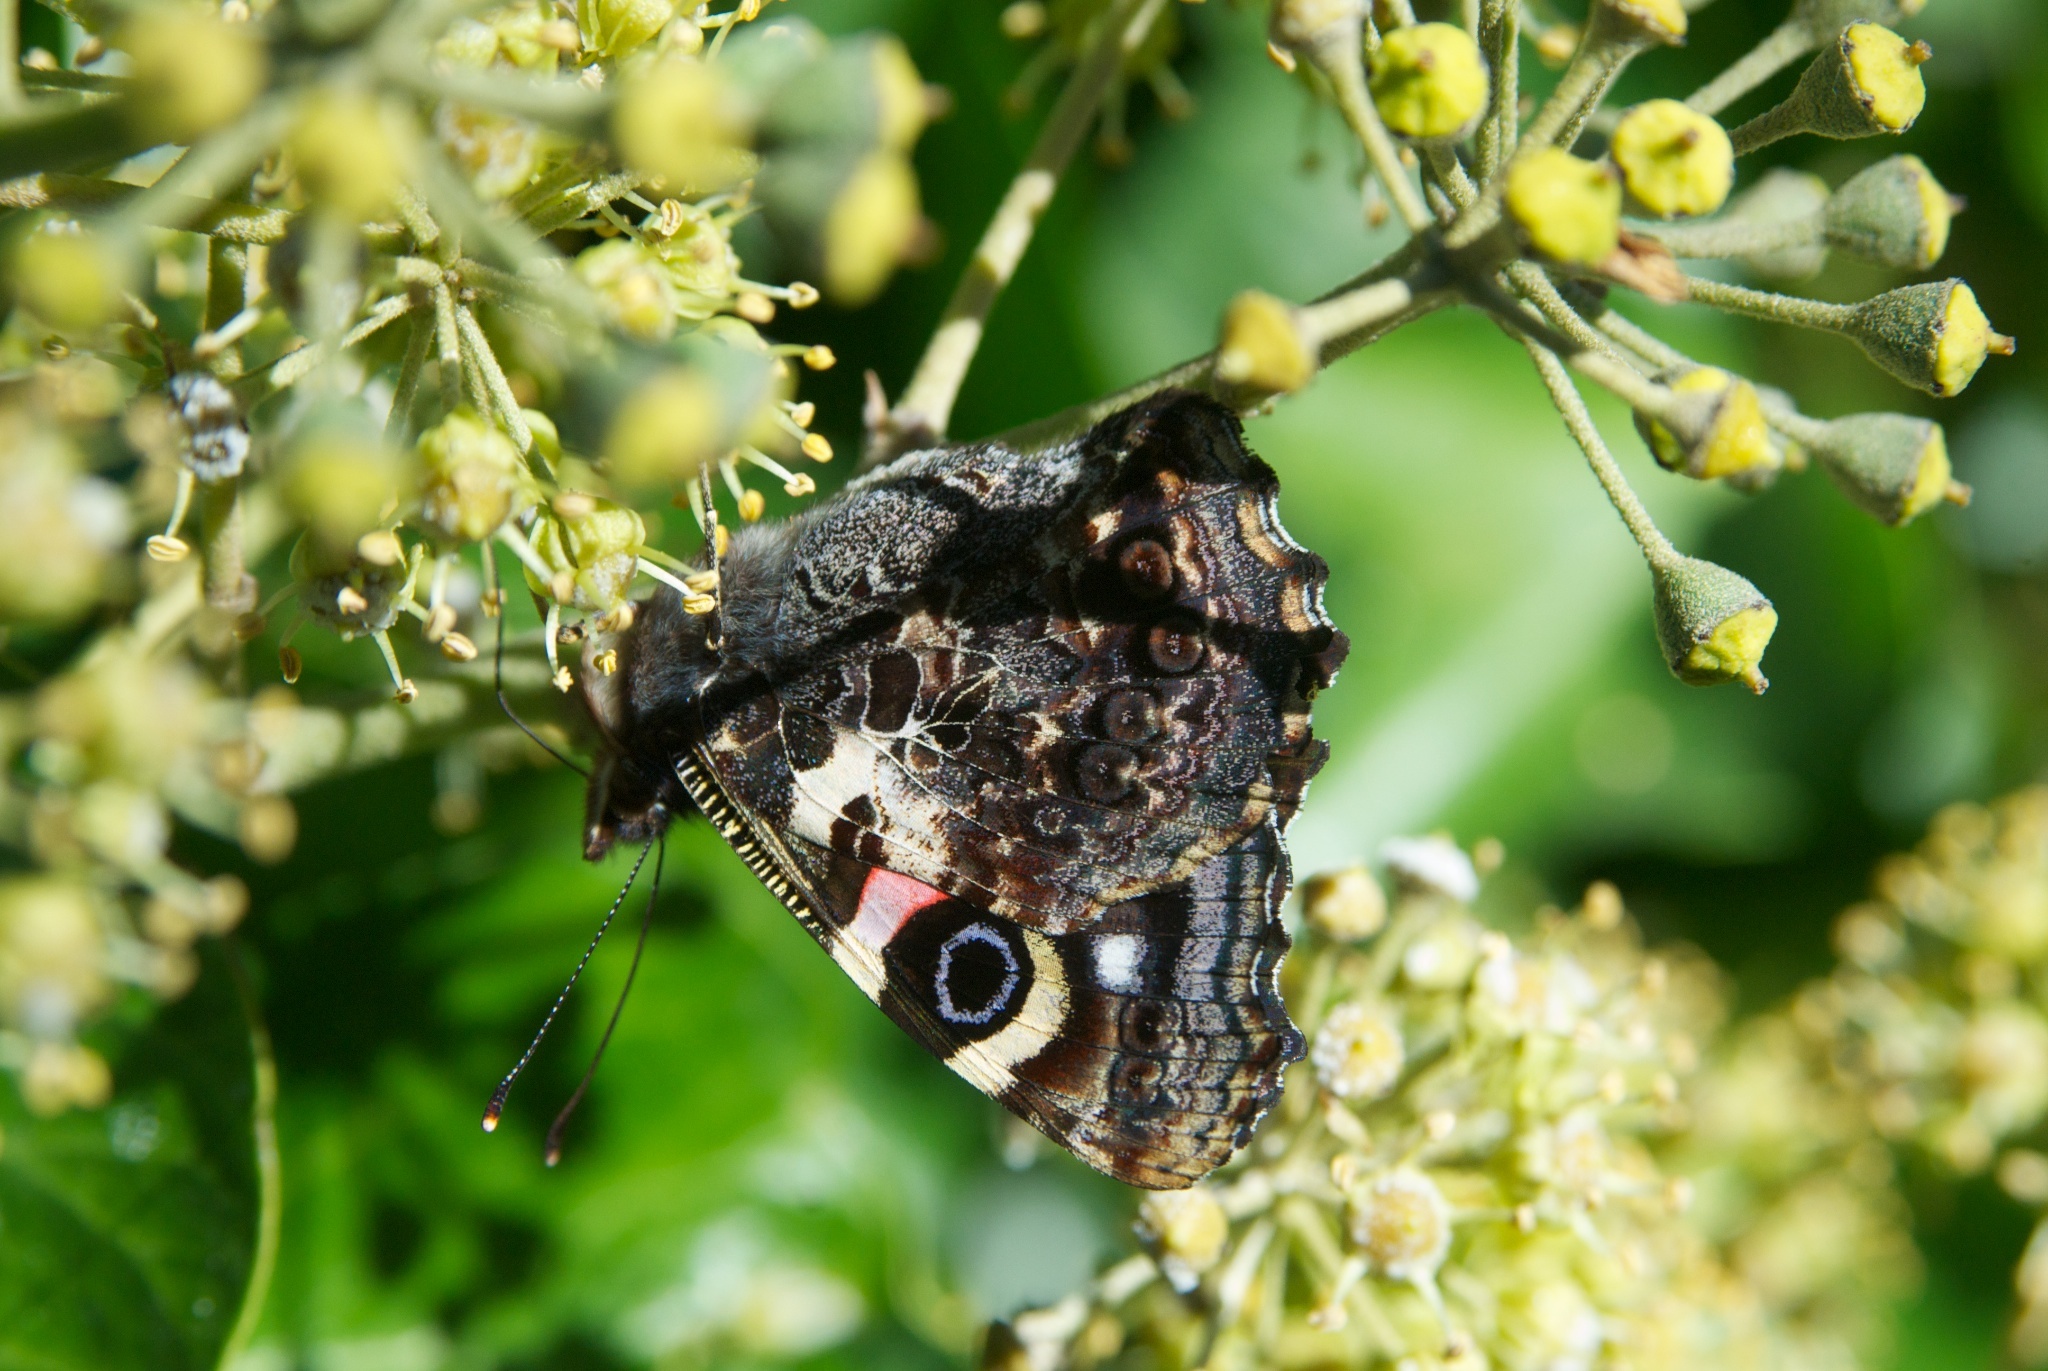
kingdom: Animalia
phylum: Arthropoda
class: Insecta
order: Lepidoptera
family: Nymphalidae
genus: Vanessa
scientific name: Vanessa gonerilla
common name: New zealand red admiral
